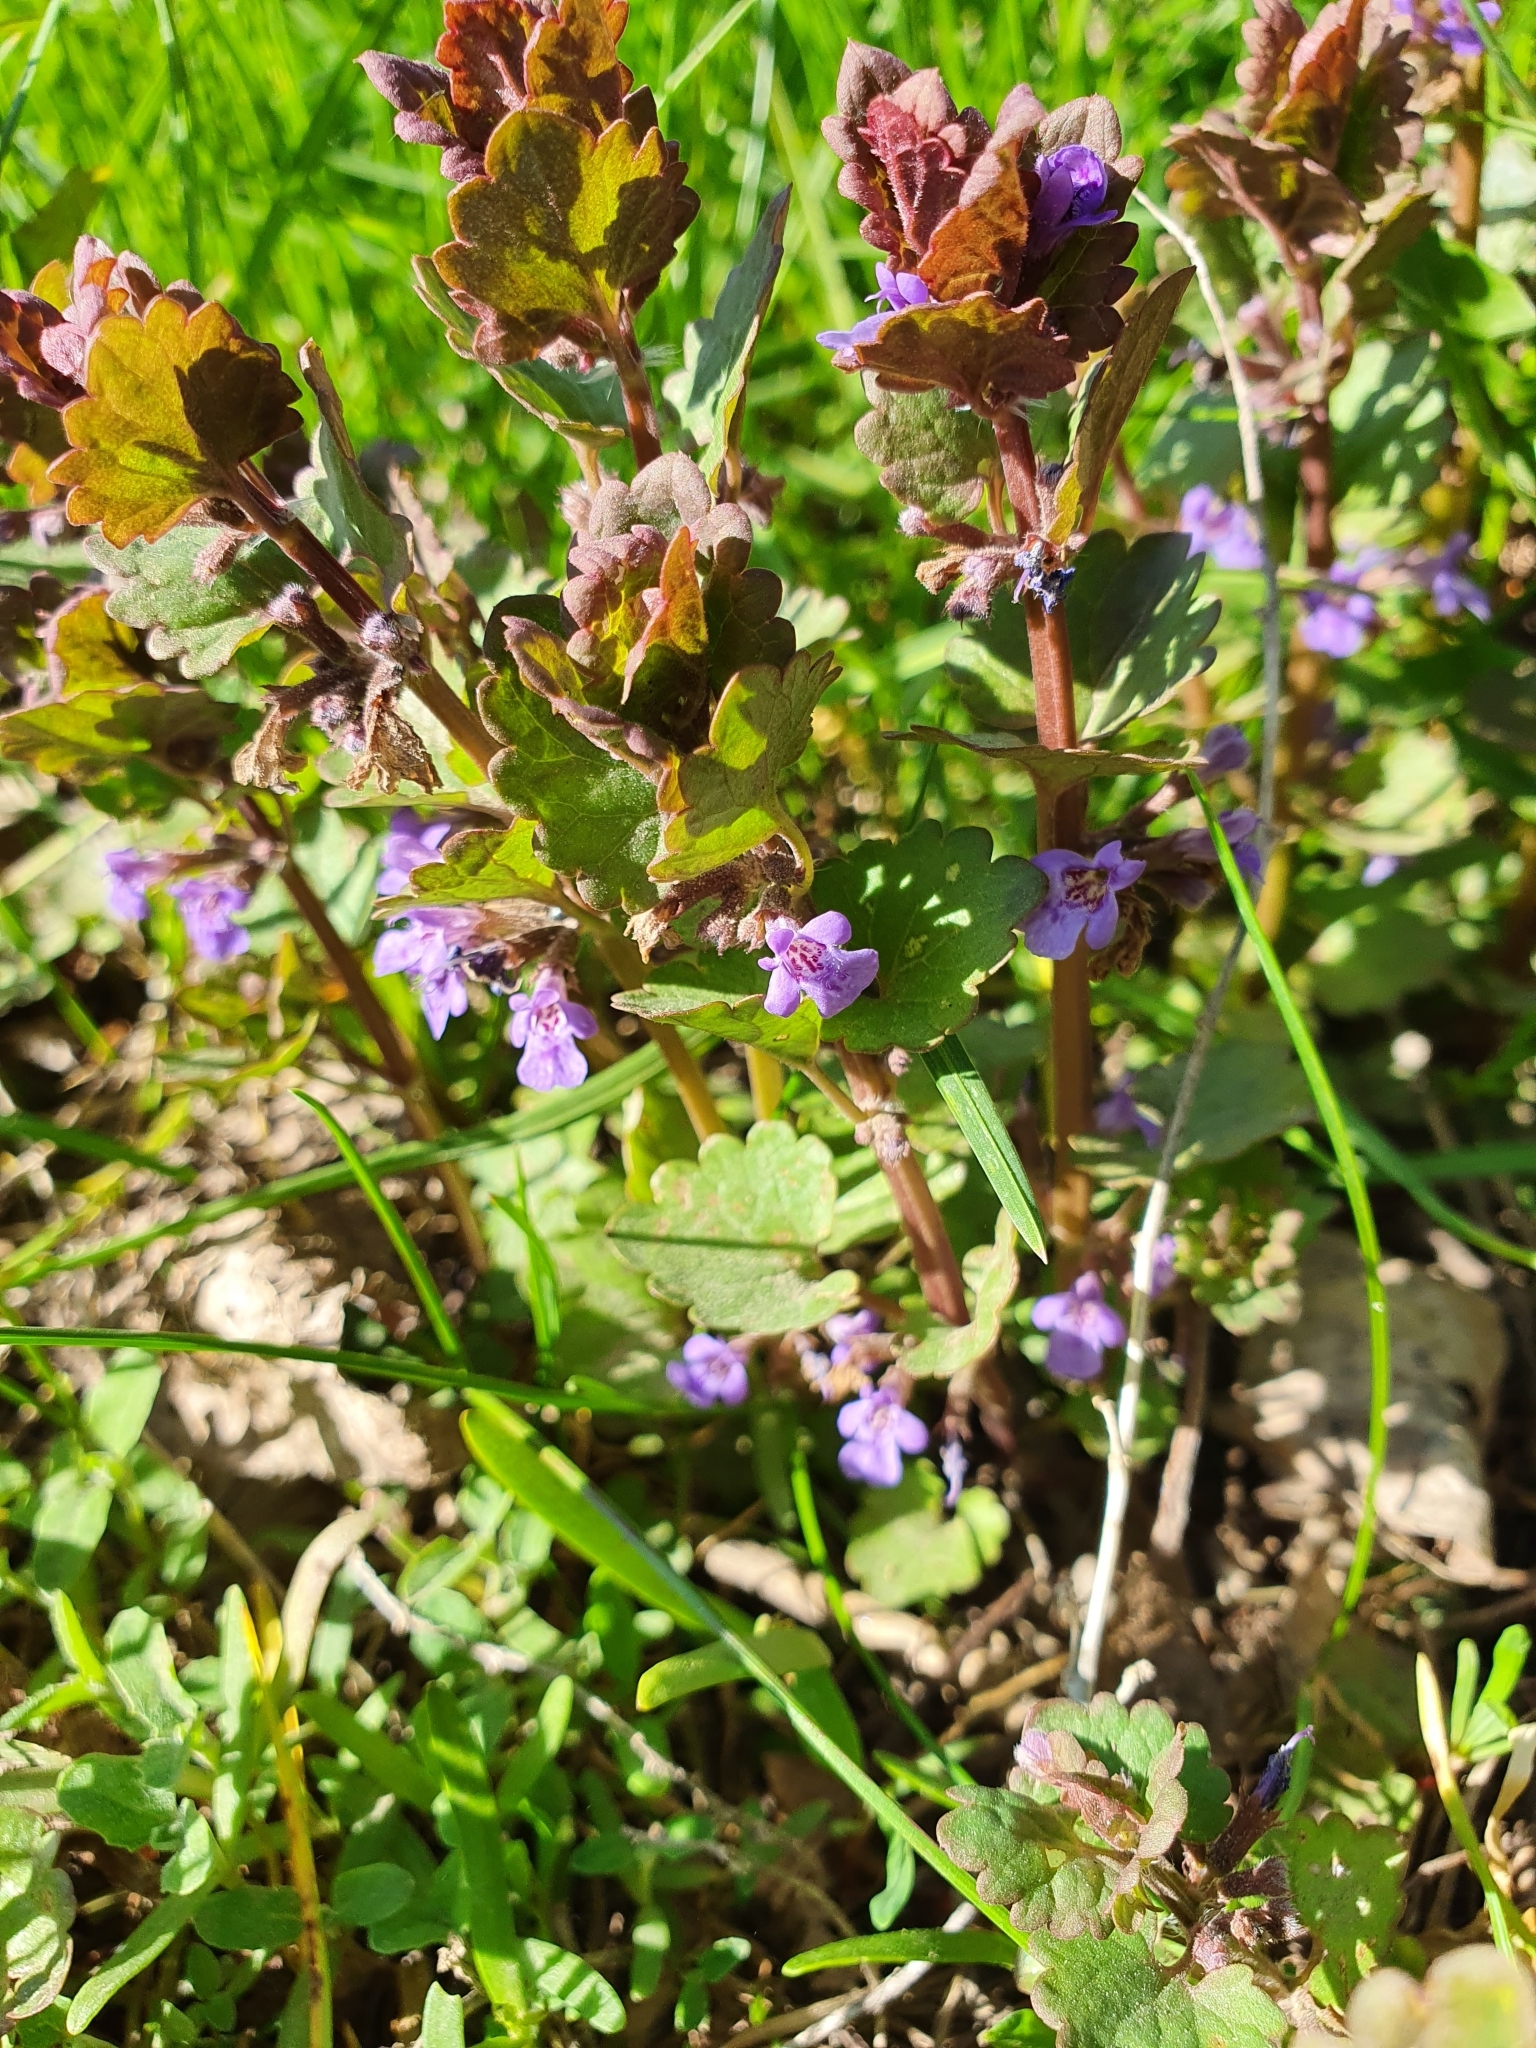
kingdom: Plantae
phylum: Tracheophyta
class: Magnoliopsida
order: Lamiales
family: Lamiaceae
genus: Glechoma
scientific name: Glechoma hederacea
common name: Ground ivy
